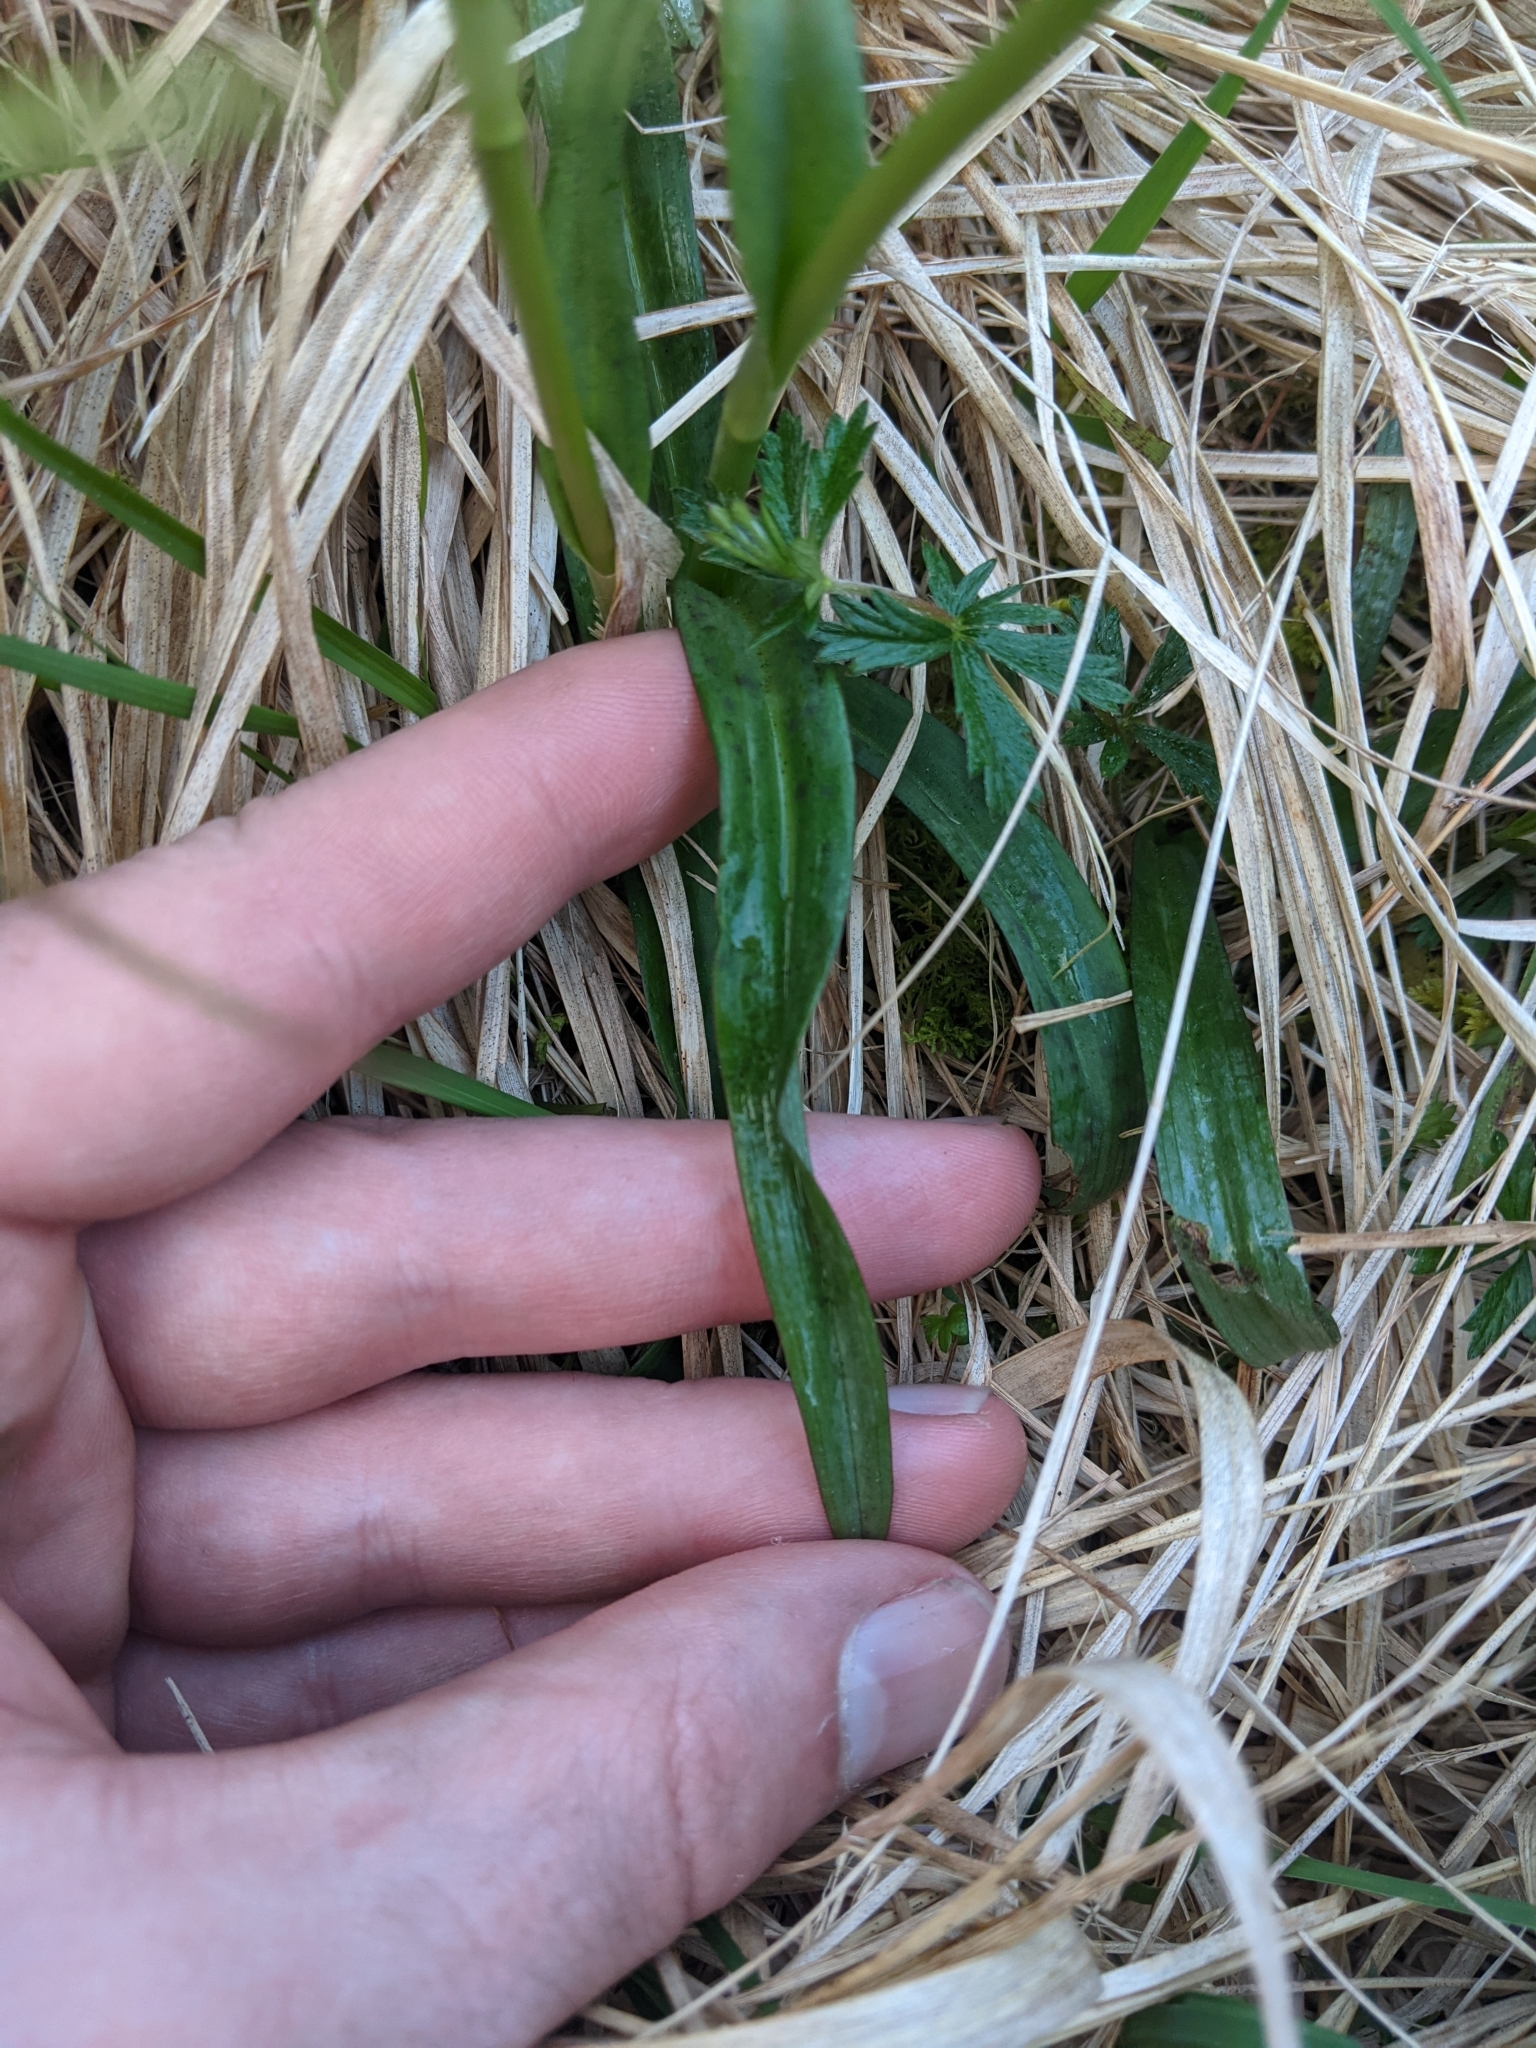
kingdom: Plantae
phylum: Tracheophyta
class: Liliopsida
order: Asparagales
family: Orchidaceae
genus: Dactylorhiza
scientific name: Dactylorhiza maculata
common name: Heath spotted-orchid
